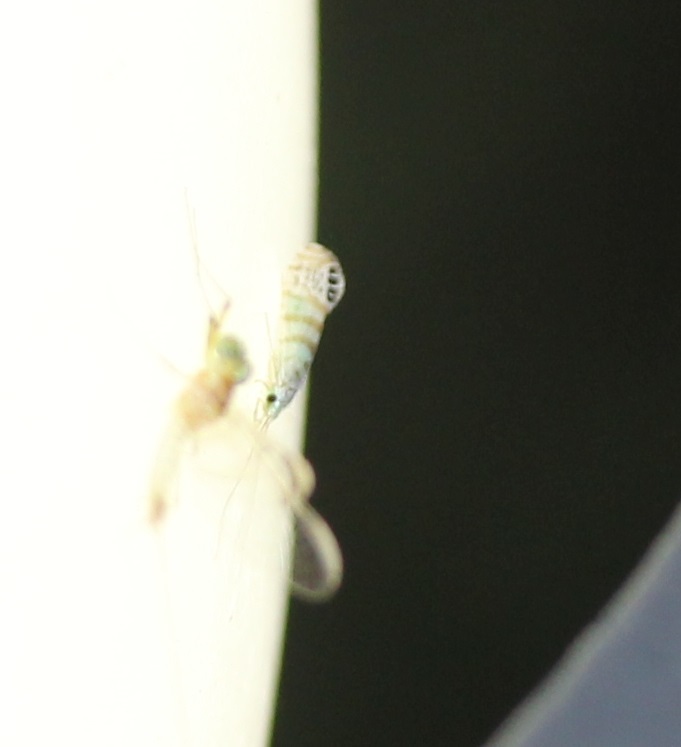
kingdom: Animalia
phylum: Arthropoda
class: Insecta
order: Trichoptera
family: Leptoceridae
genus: Nectopsyche
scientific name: Nectopsyche exquisita
